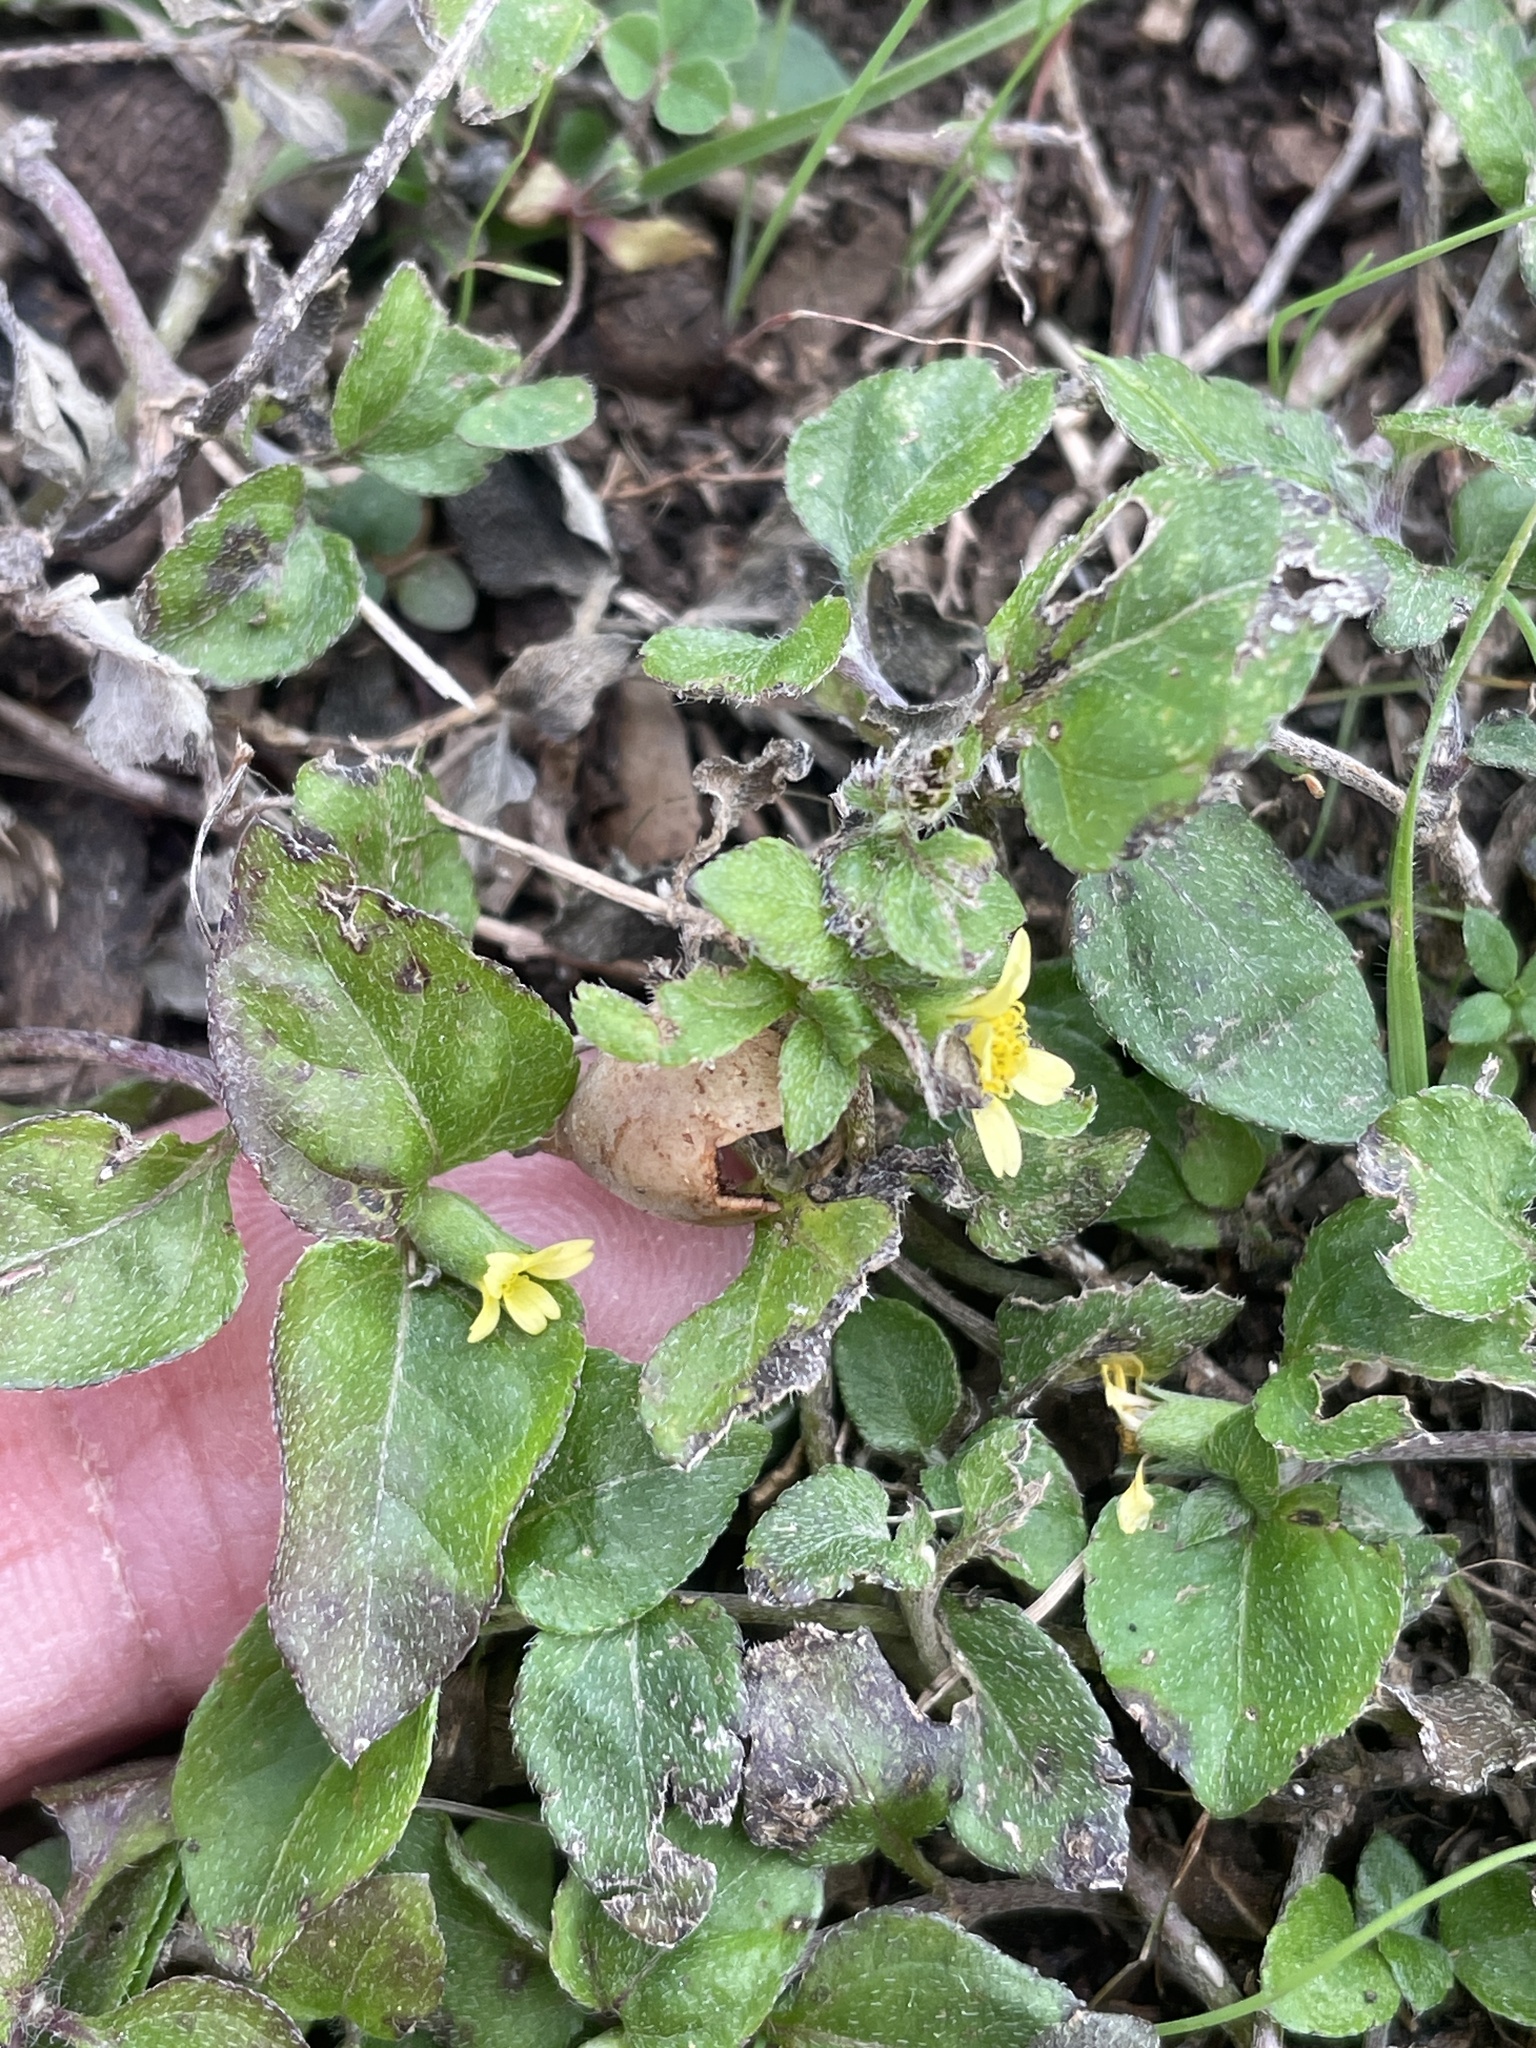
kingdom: Plantae
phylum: Tracheophyta
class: Magnoliopsida
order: Asterales
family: Asteraceae
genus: Calyptocarpus
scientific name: Calyptocarpus vialis
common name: Straggler daisy
